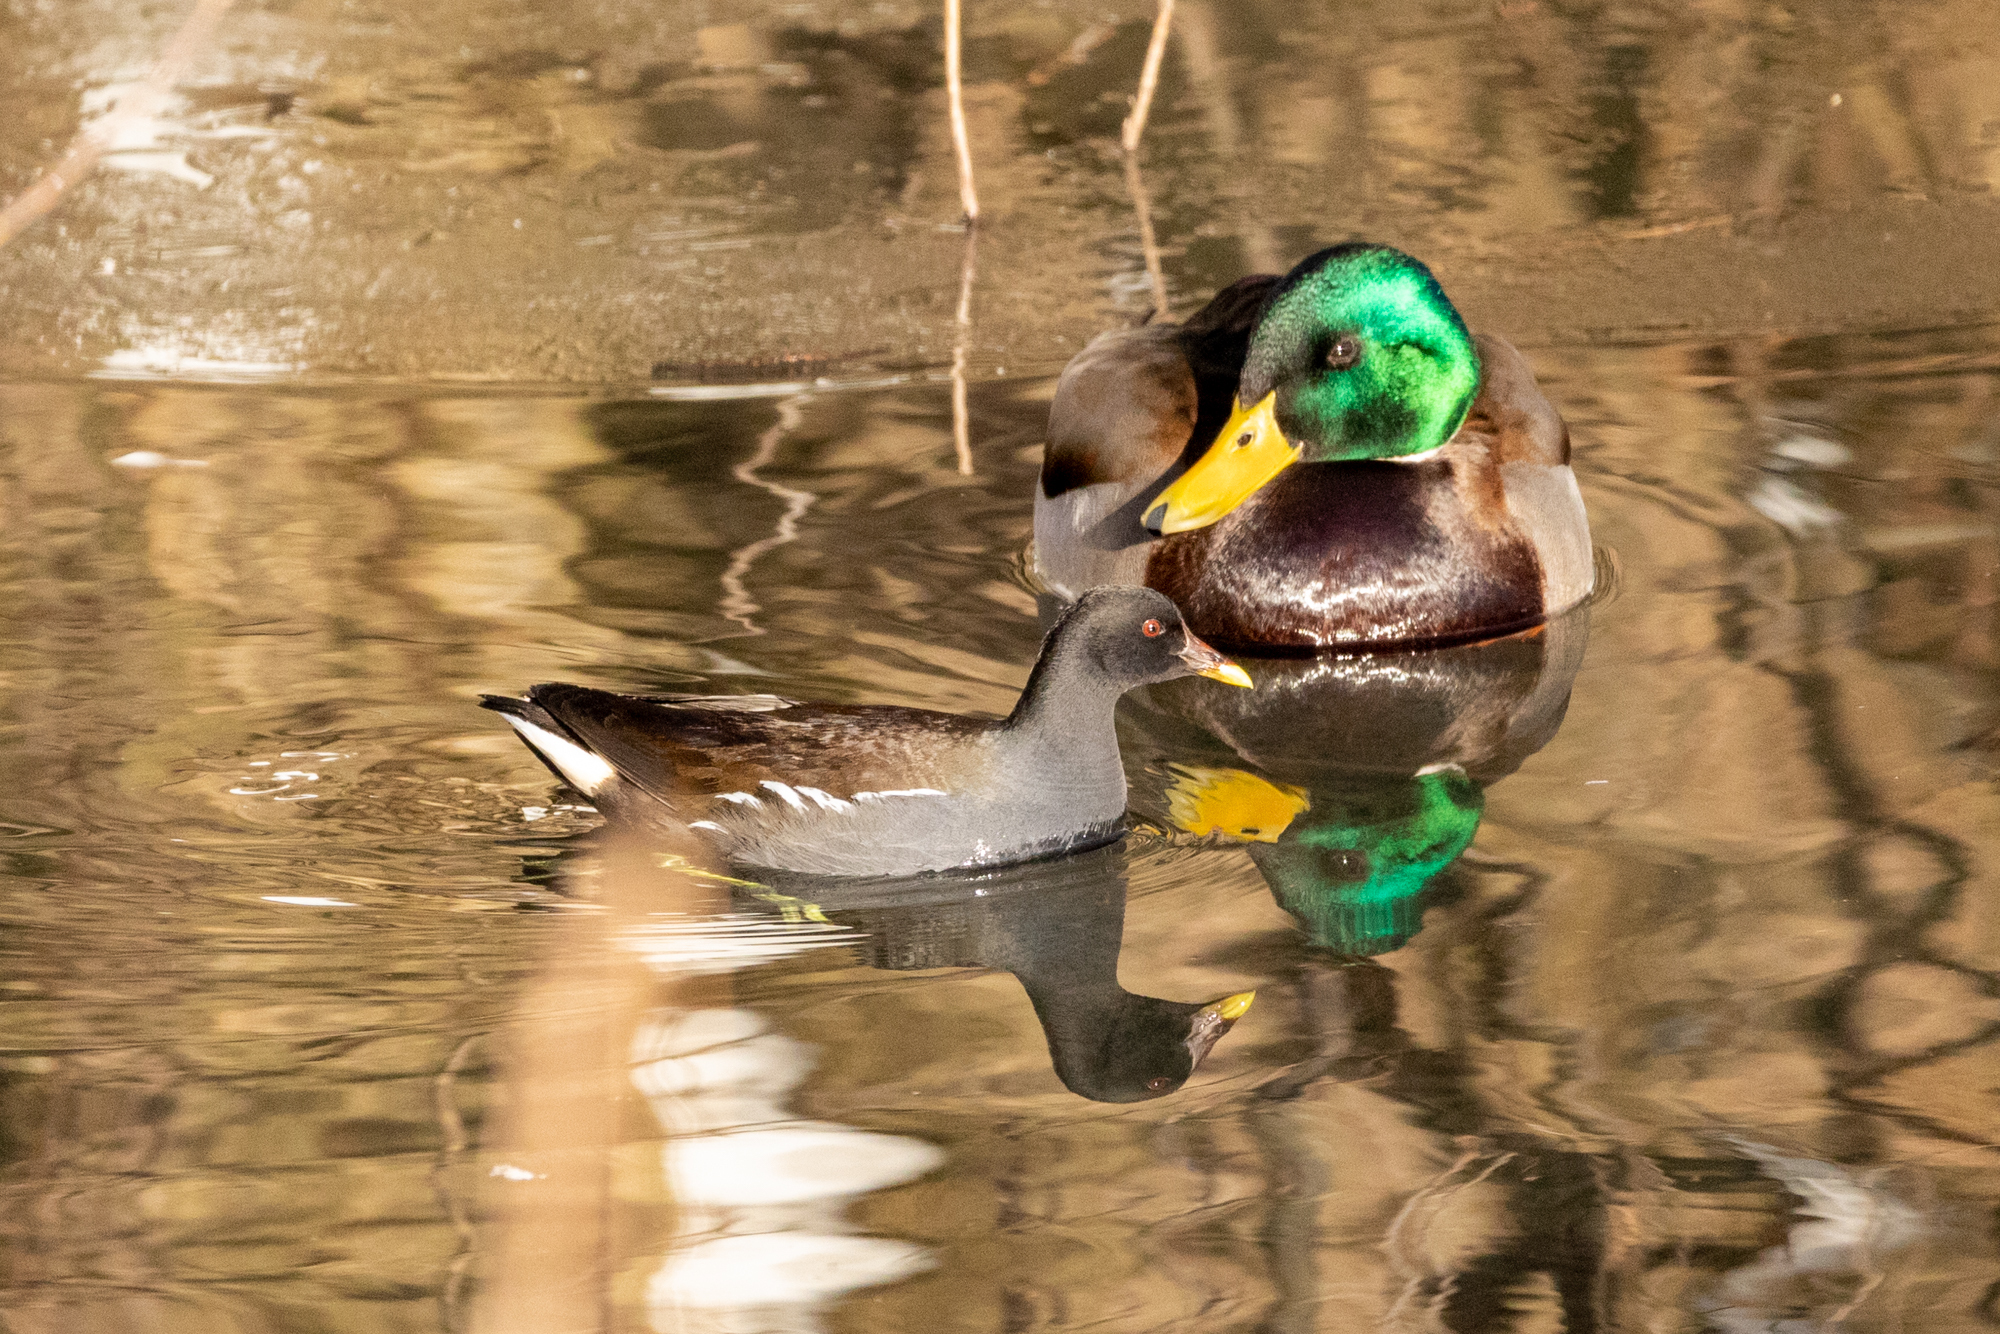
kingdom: Animalia
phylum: Chordata
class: Aves
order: Gruiformes
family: Rallidae
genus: Gallinula
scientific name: Gallinula chloropus
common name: Common moorhen
